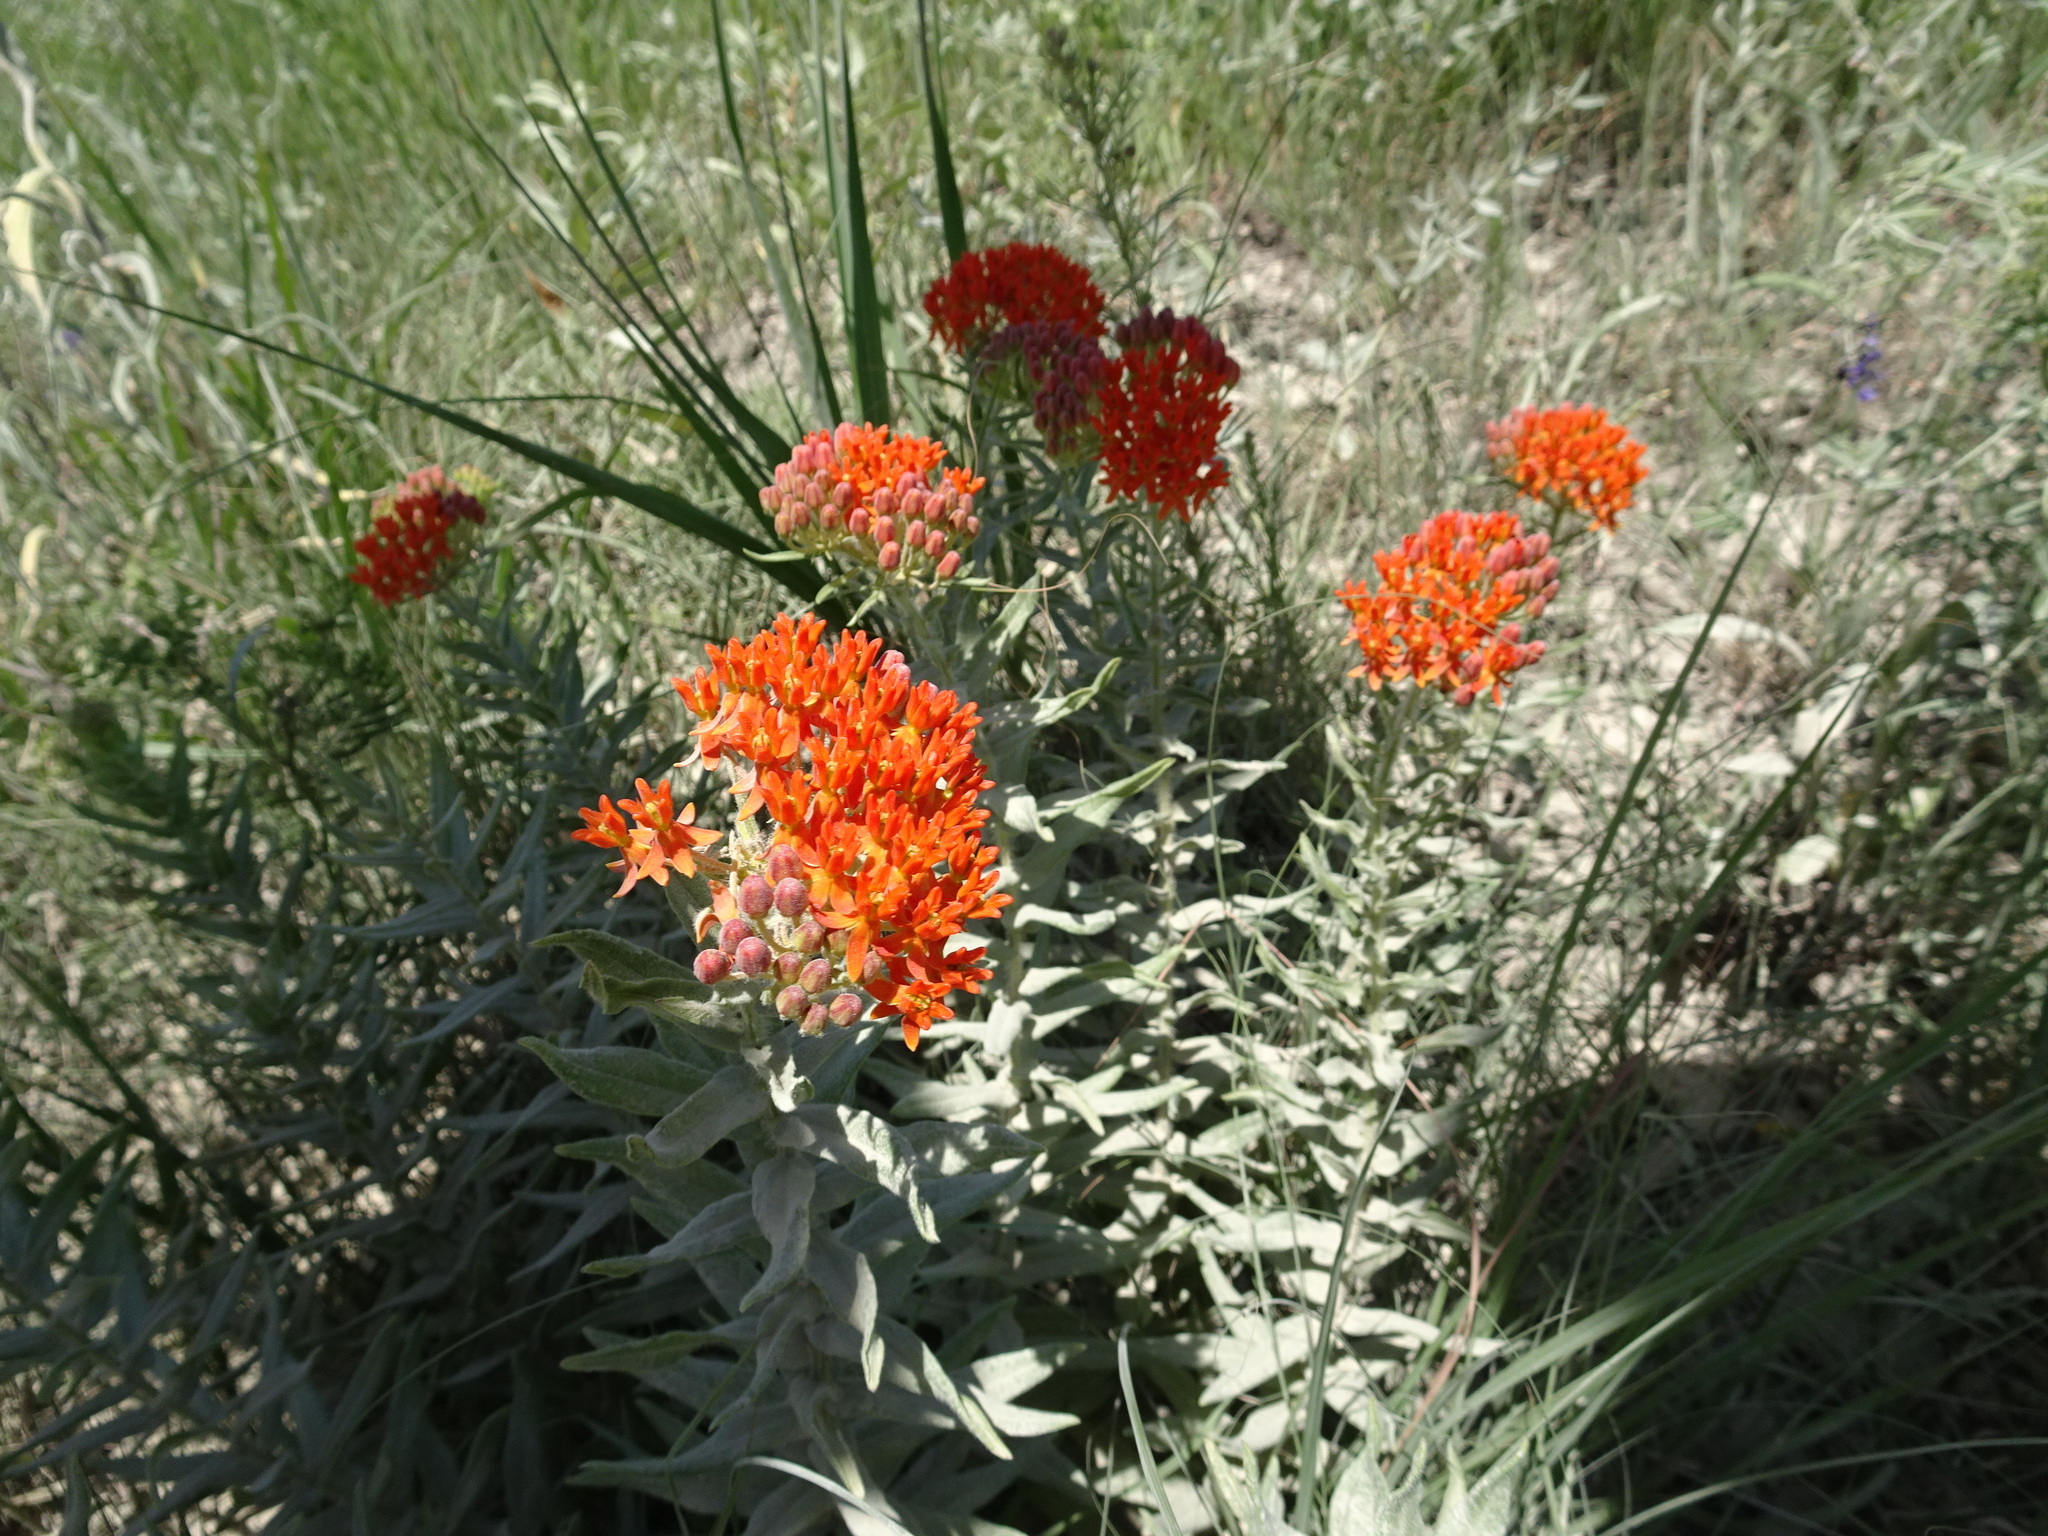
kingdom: Plantae
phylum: Tracheophyta
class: Magnoliopsida
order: Gentianales
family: Apocynaceae
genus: Asclepias
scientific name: Asclepias tuberosa
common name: Butterfly milkweed
